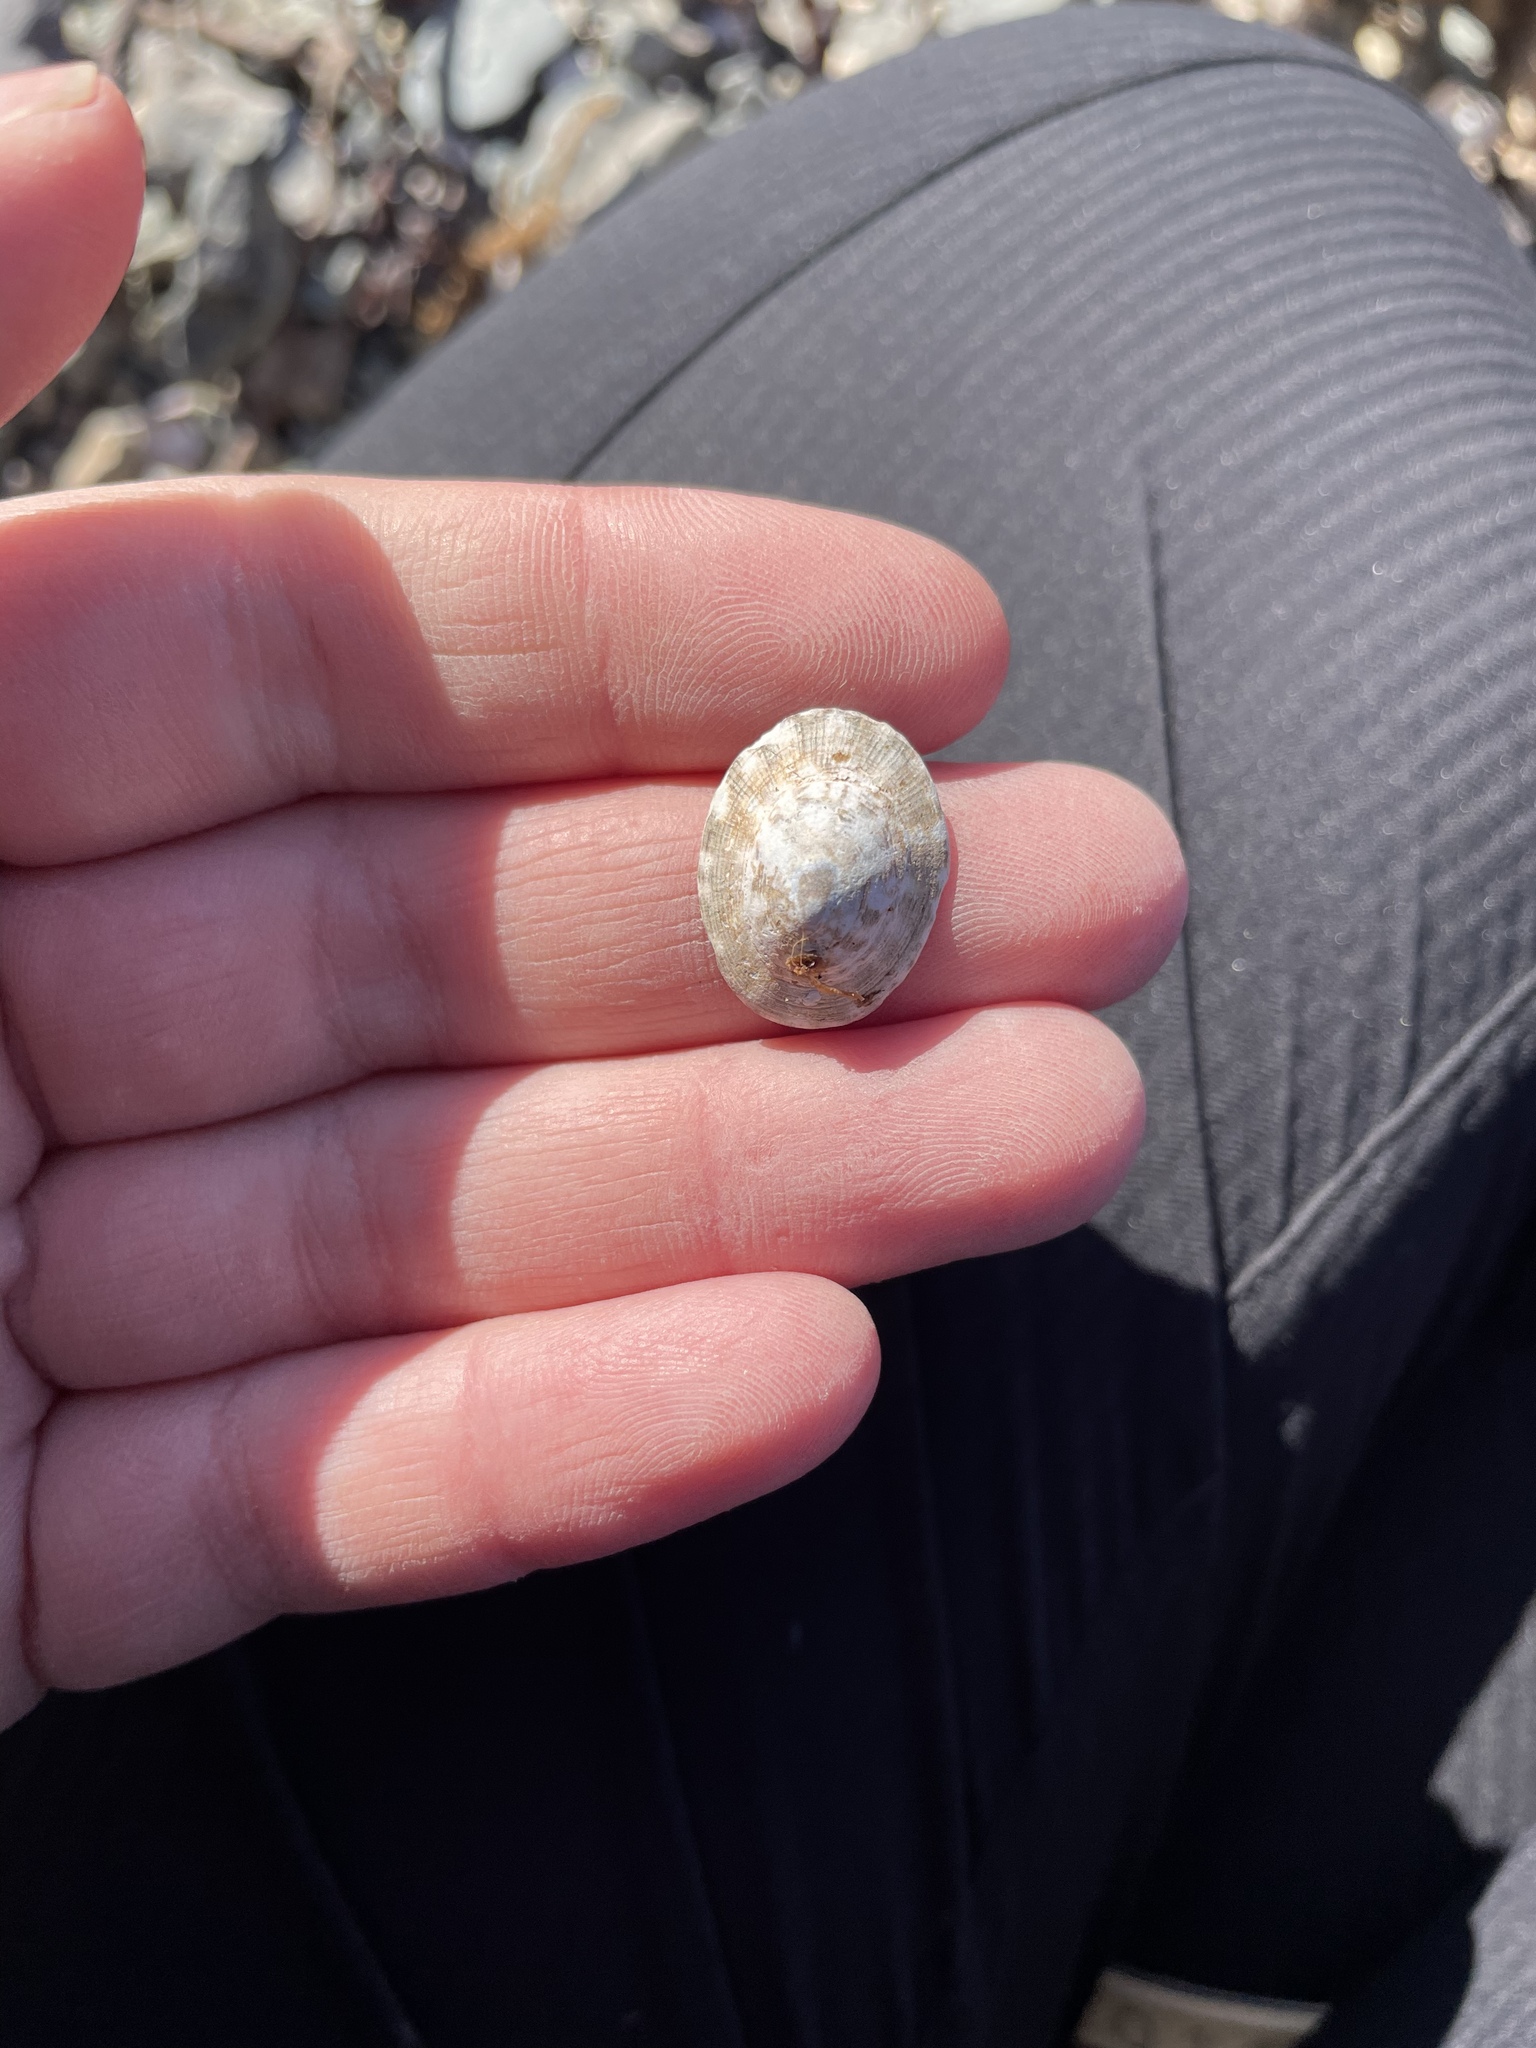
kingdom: Animalia
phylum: Mollusca
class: Gastropoda
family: Lottiidae
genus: Testudinalia
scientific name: Testudinalia testudinalis
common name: Common tortoiseshell limpet
